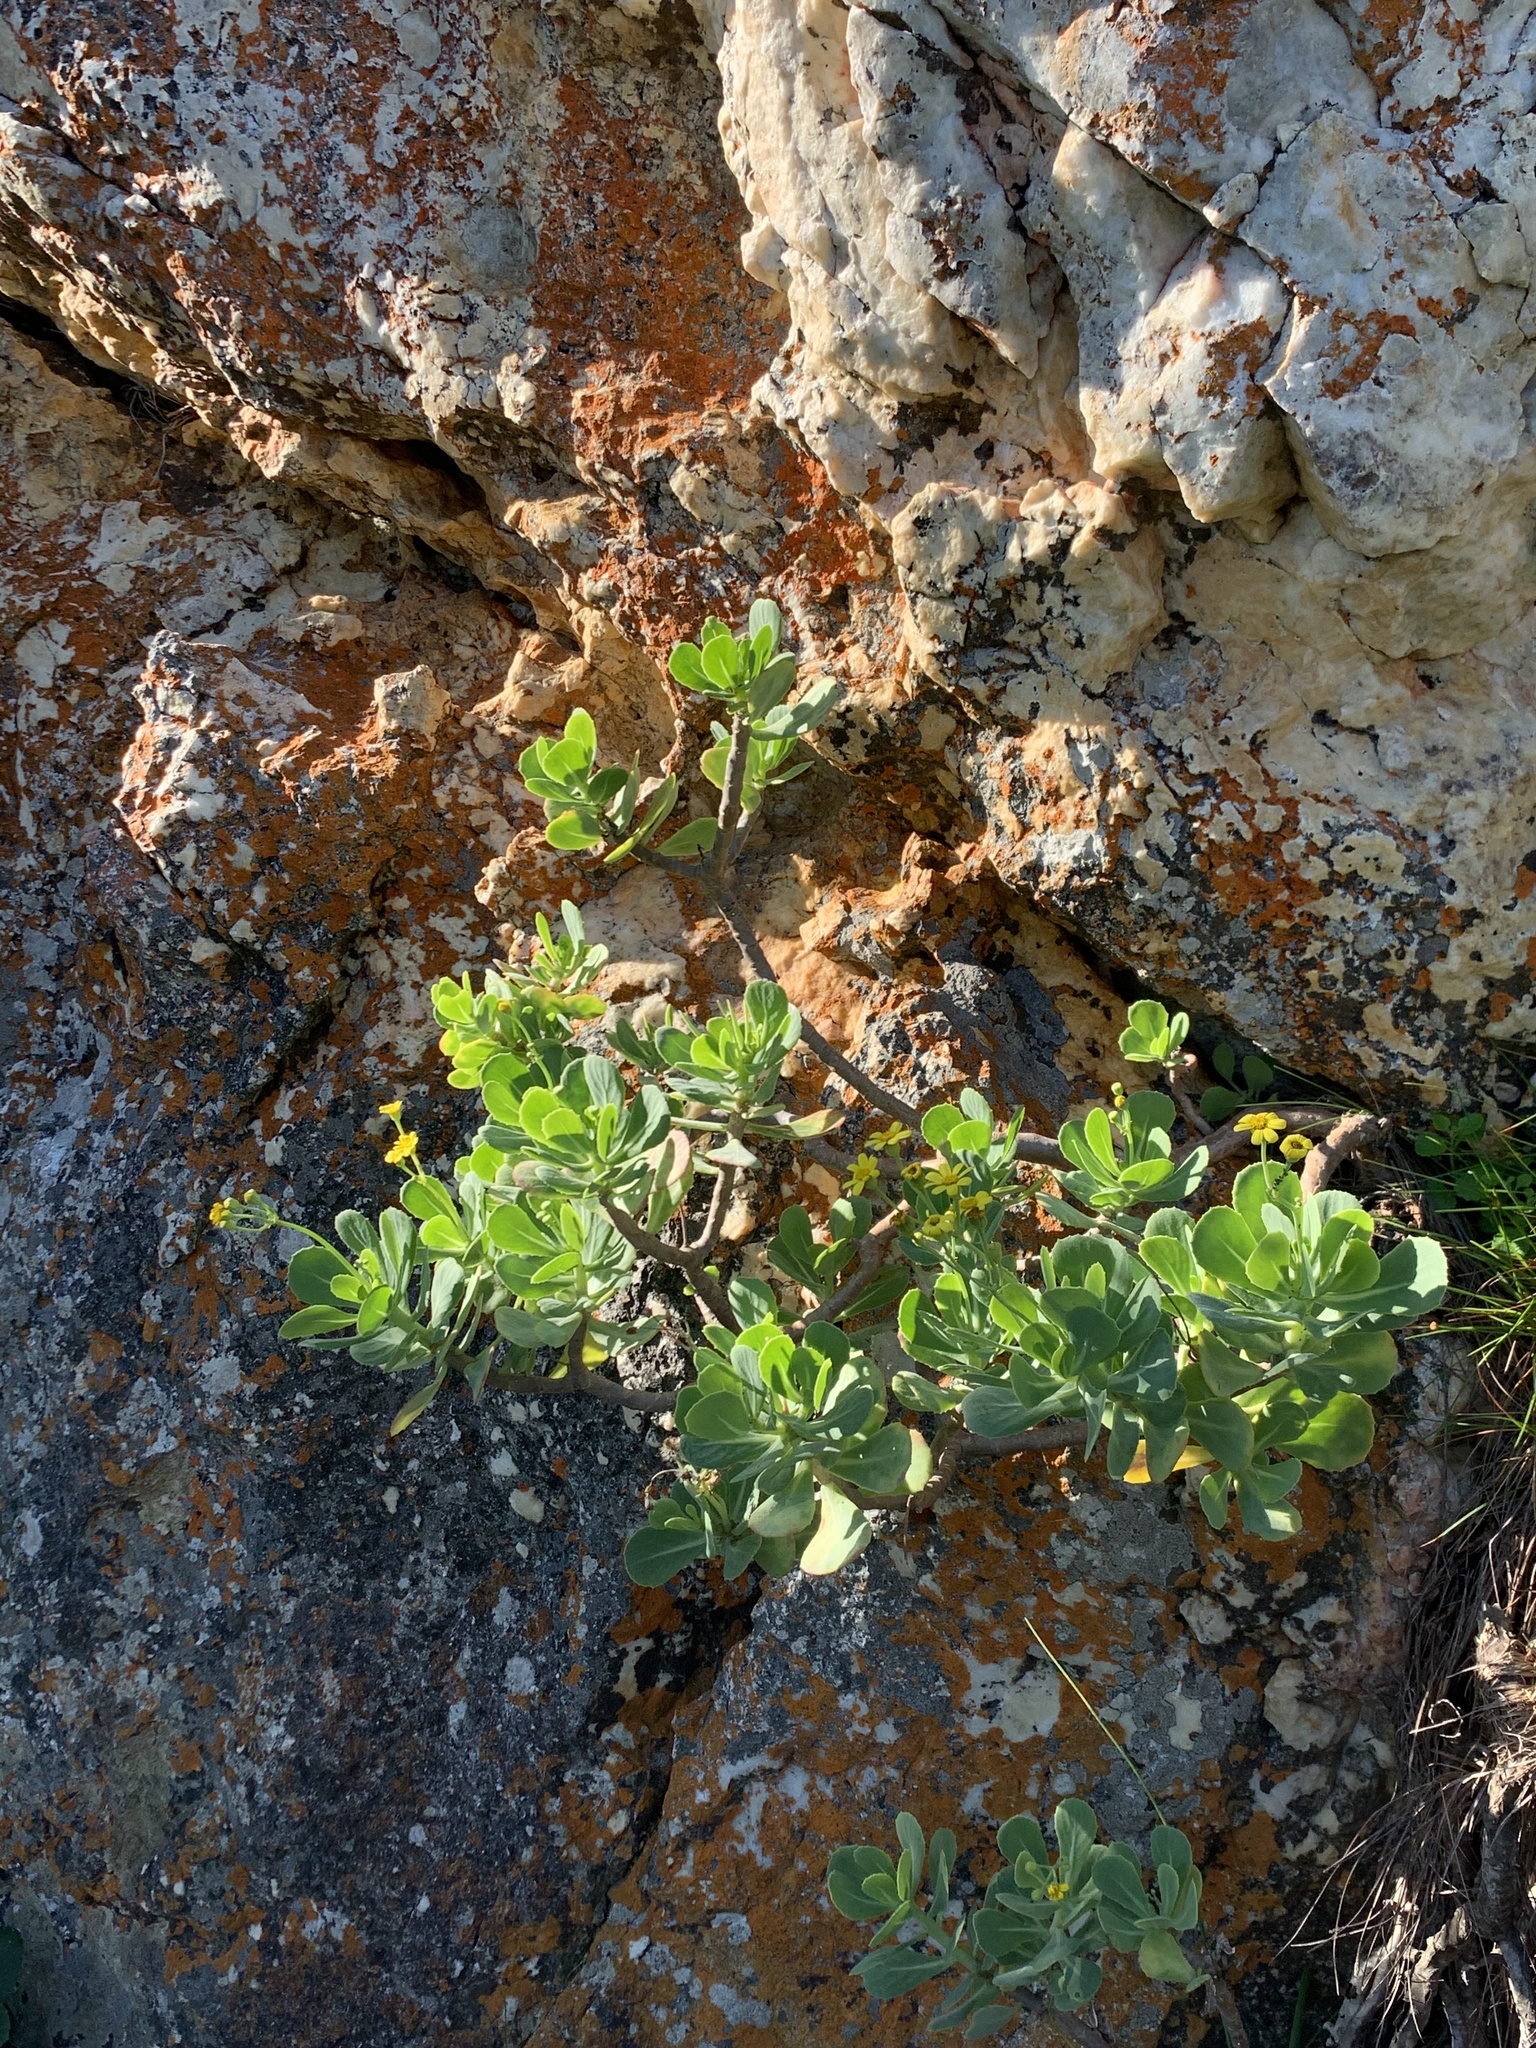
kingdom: Plantae
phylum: Tracheophyta
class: Magnoliopsida
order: Asterales
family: Asteraceae
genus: Othonna
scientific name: Othonna dentata
